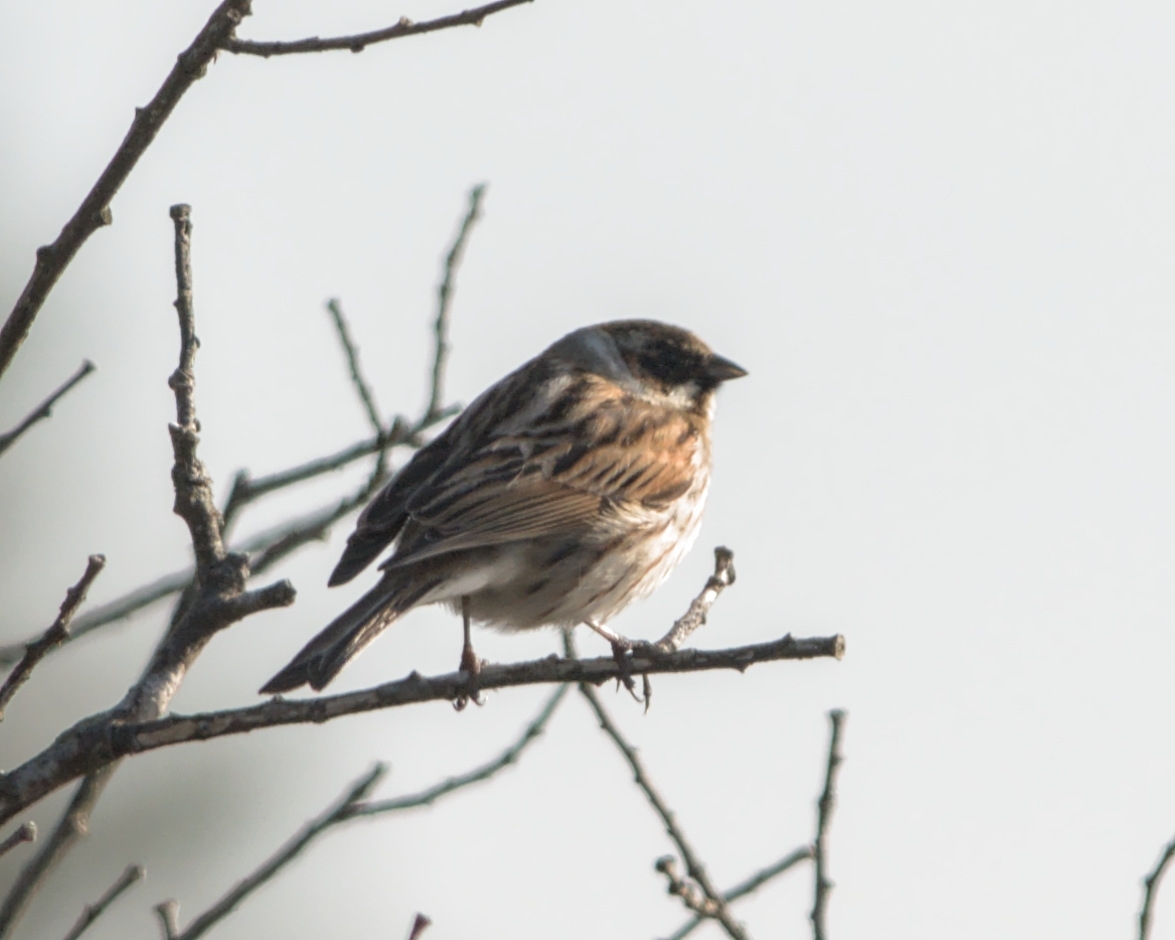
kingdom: Animalia
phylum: Chordata
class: Aves
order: Passeriformes
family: Emberizidae
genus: Emberiza
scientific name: Emberiza schoeniclus
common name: Reed bunting
